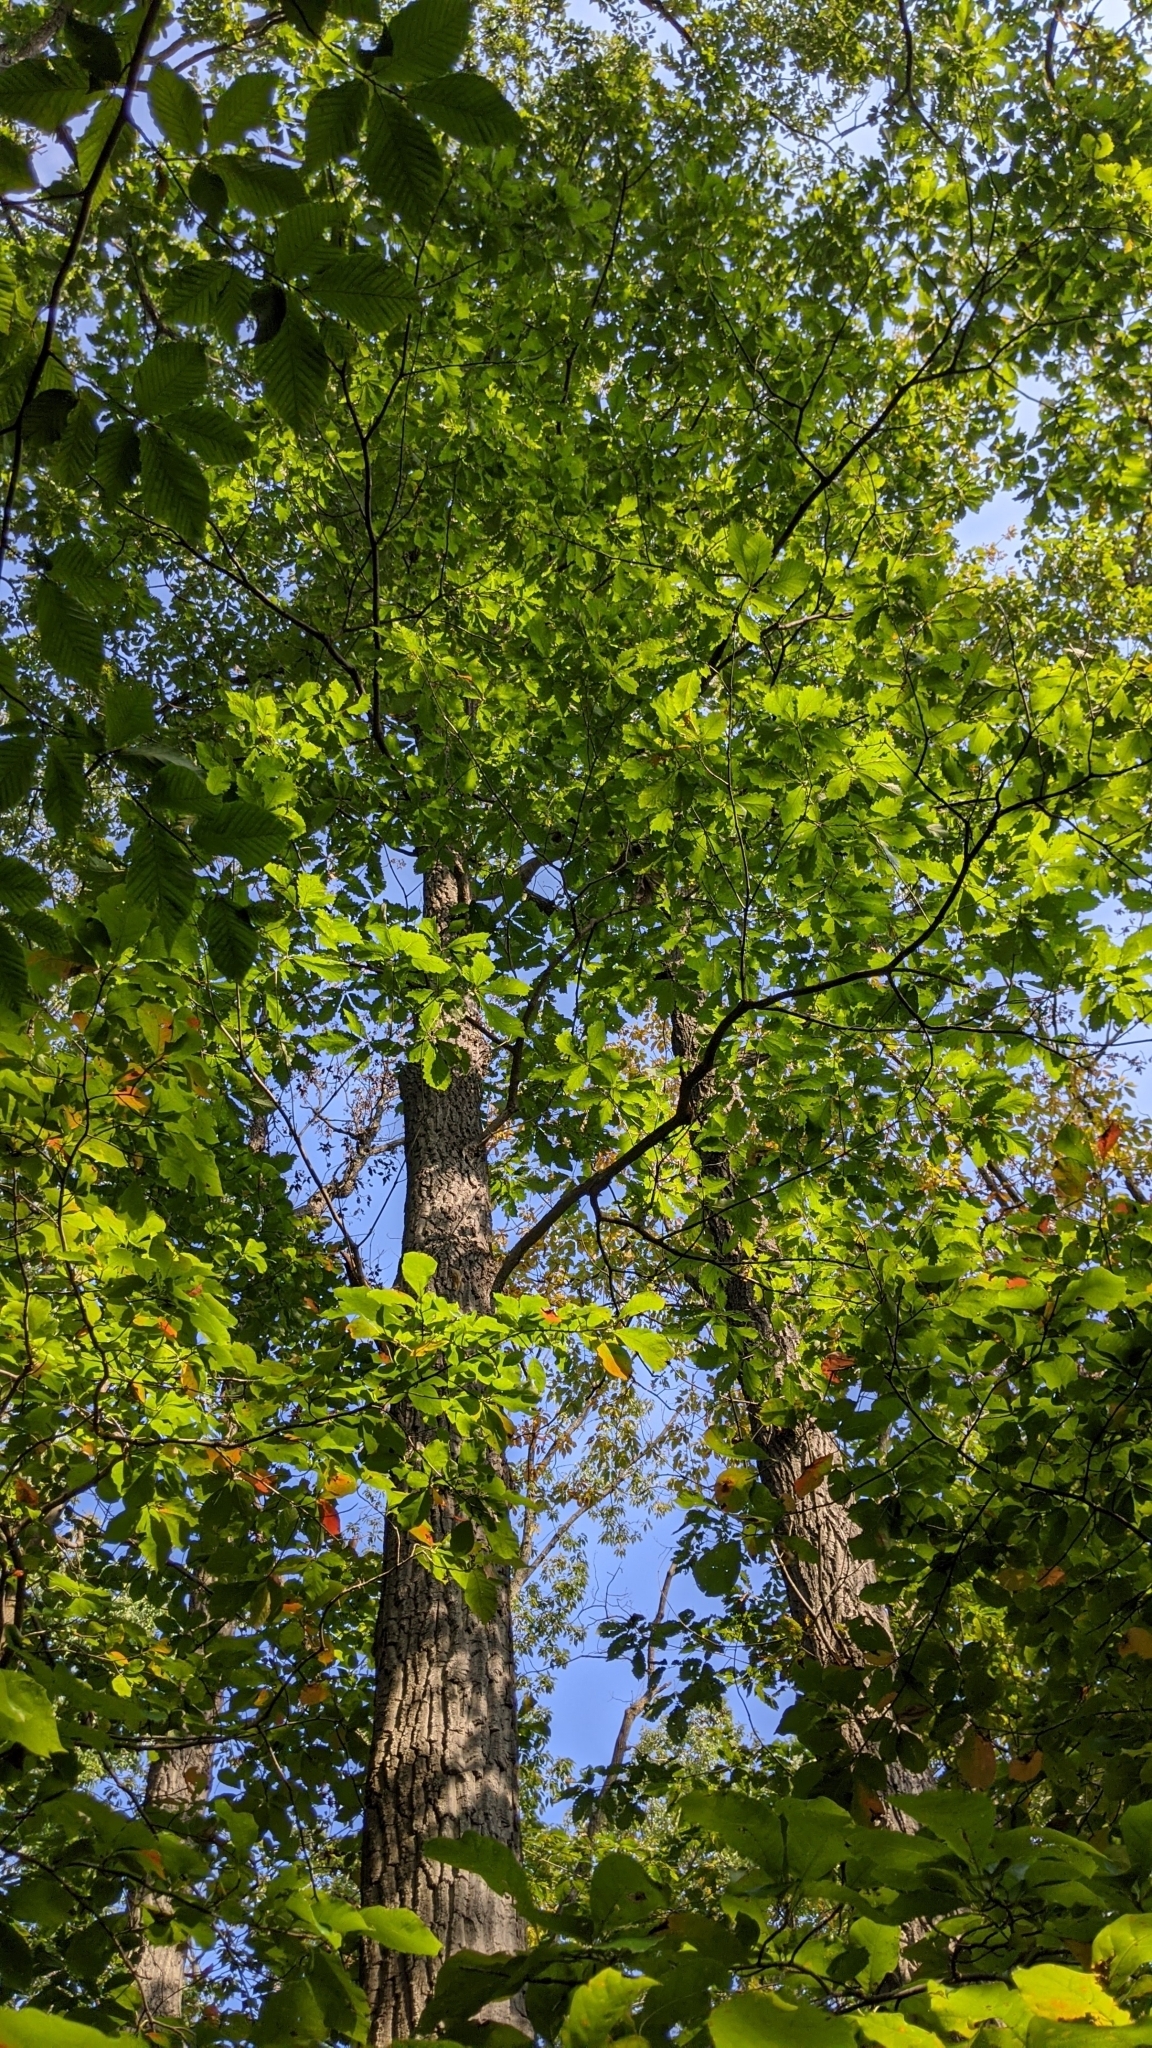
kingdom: Plantae
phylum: Tracheophyta
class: Magnoliopsida
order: Fagales
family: Fagaceae
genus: Quercus
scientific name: Quercus montana
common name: Chestnut oak
